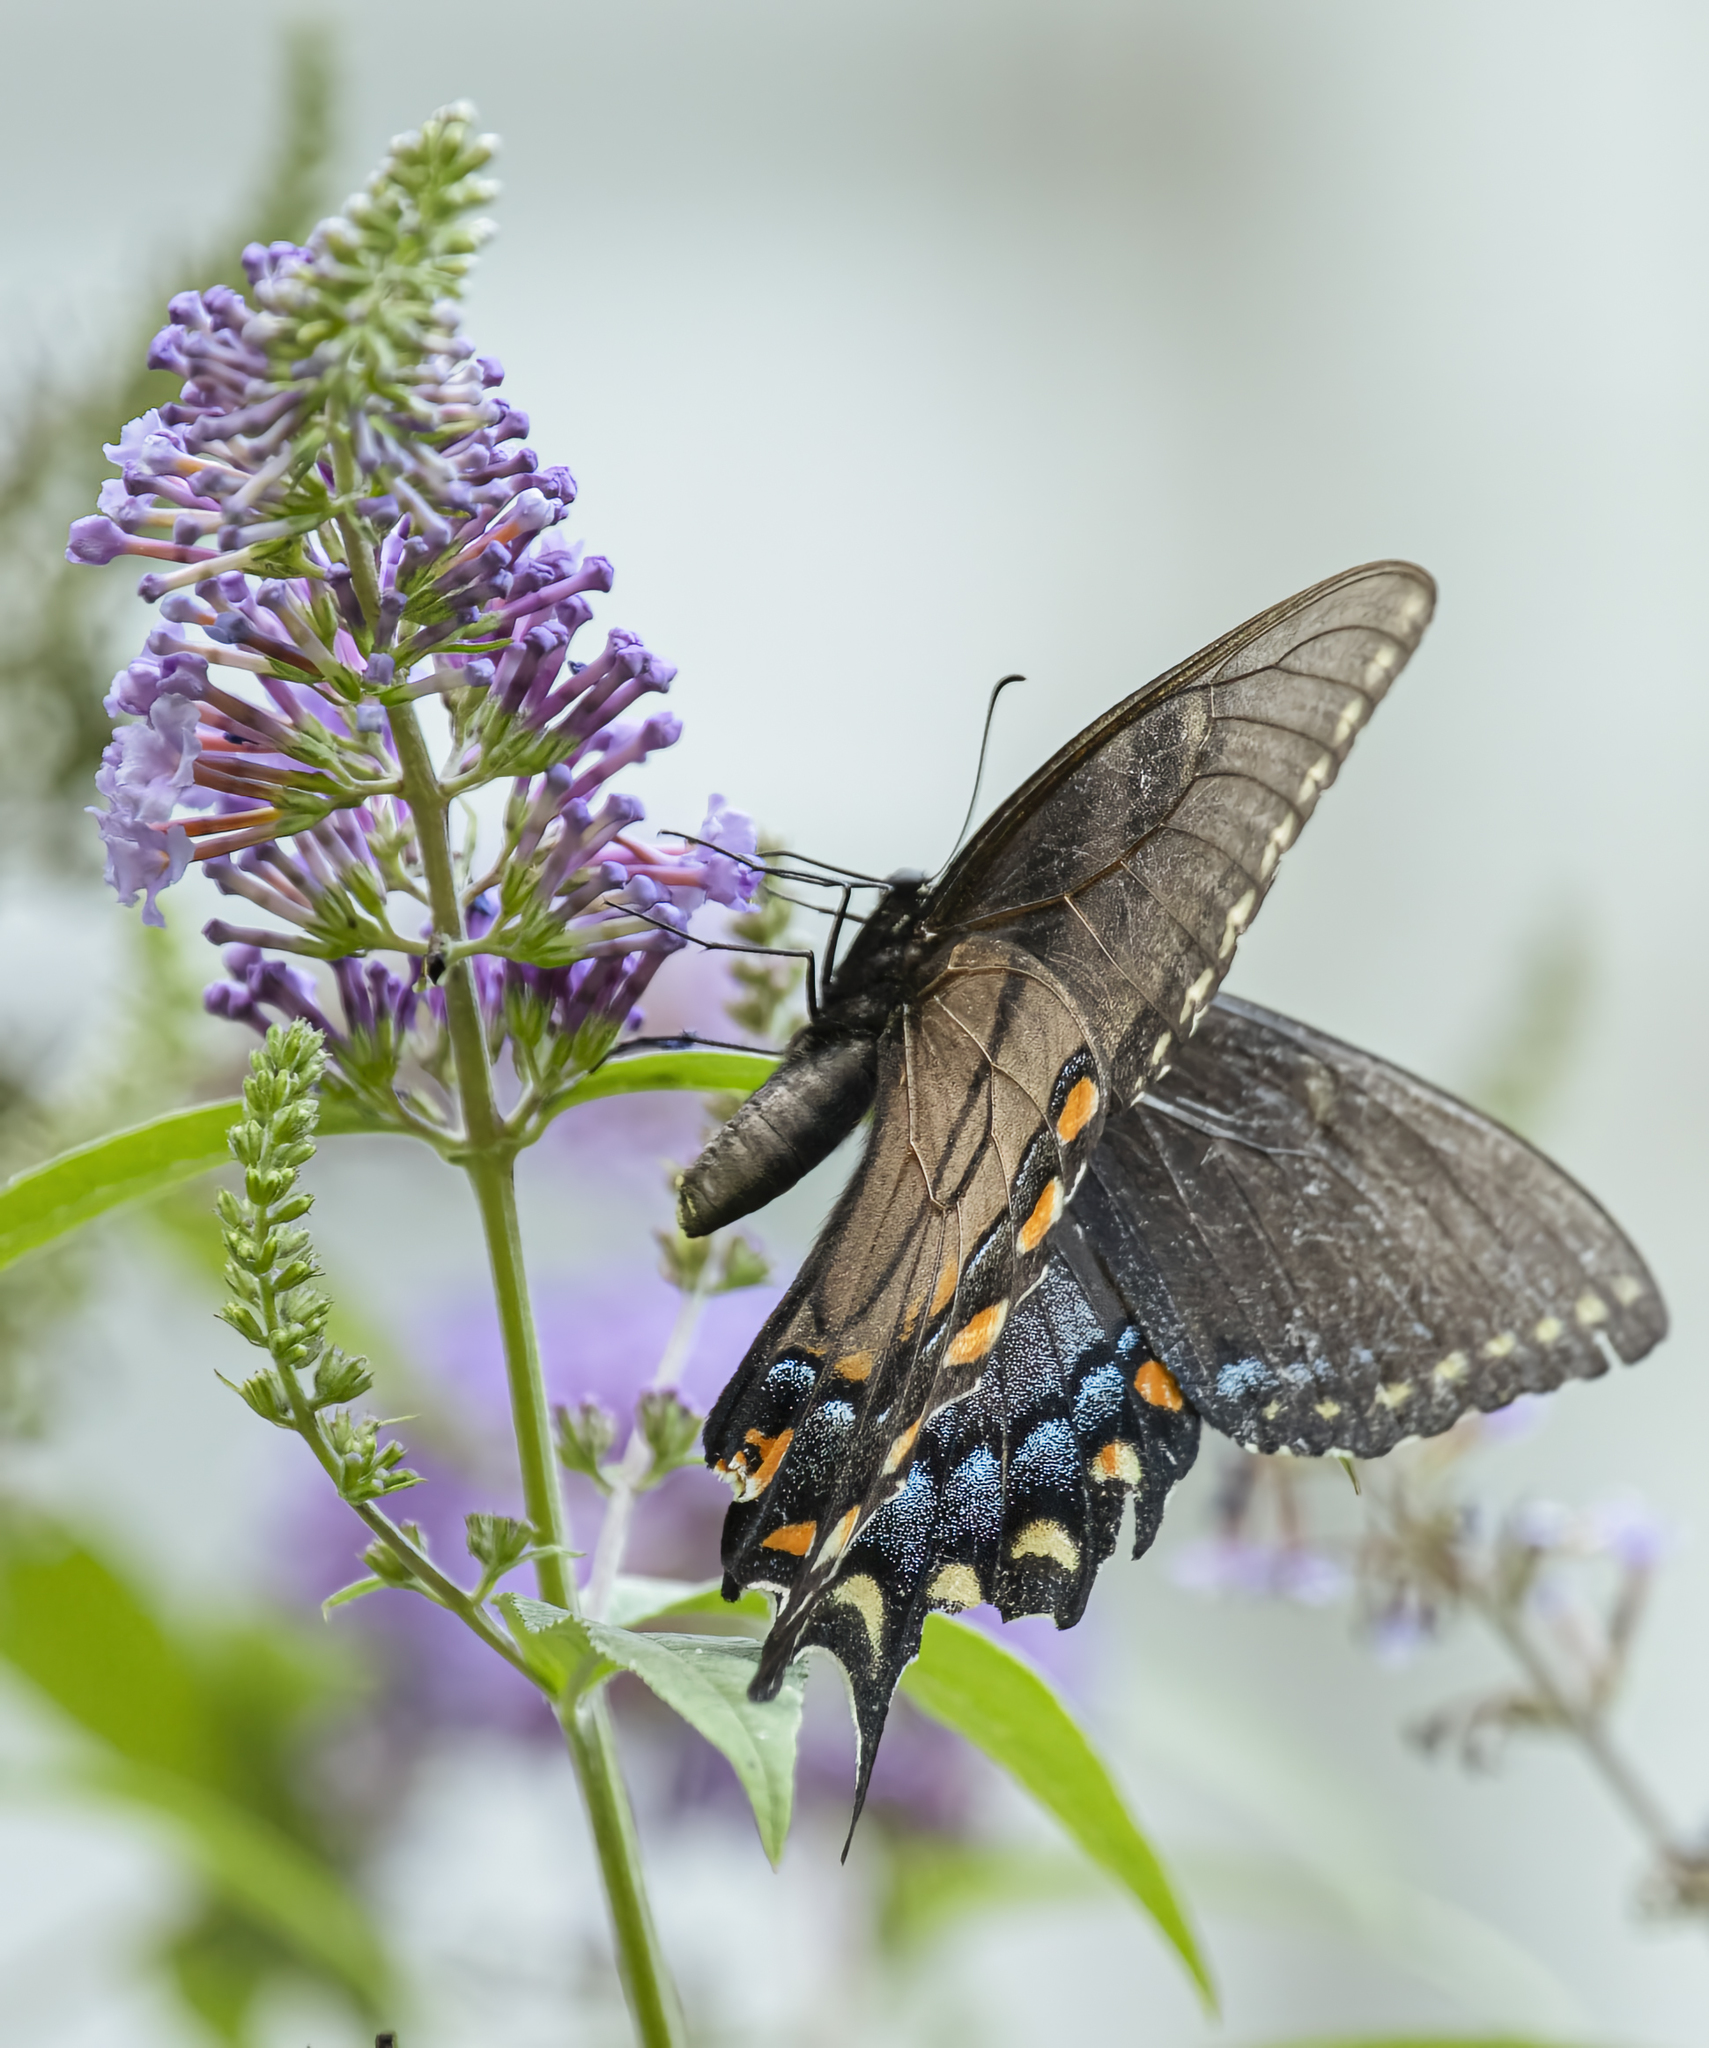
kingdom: Animalia
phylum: Arthropoda
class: Insecta
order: Lepidoptera
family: Papilionidae
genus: Papilio
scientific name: Papilio glaucus
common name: Tiger swallowtail
